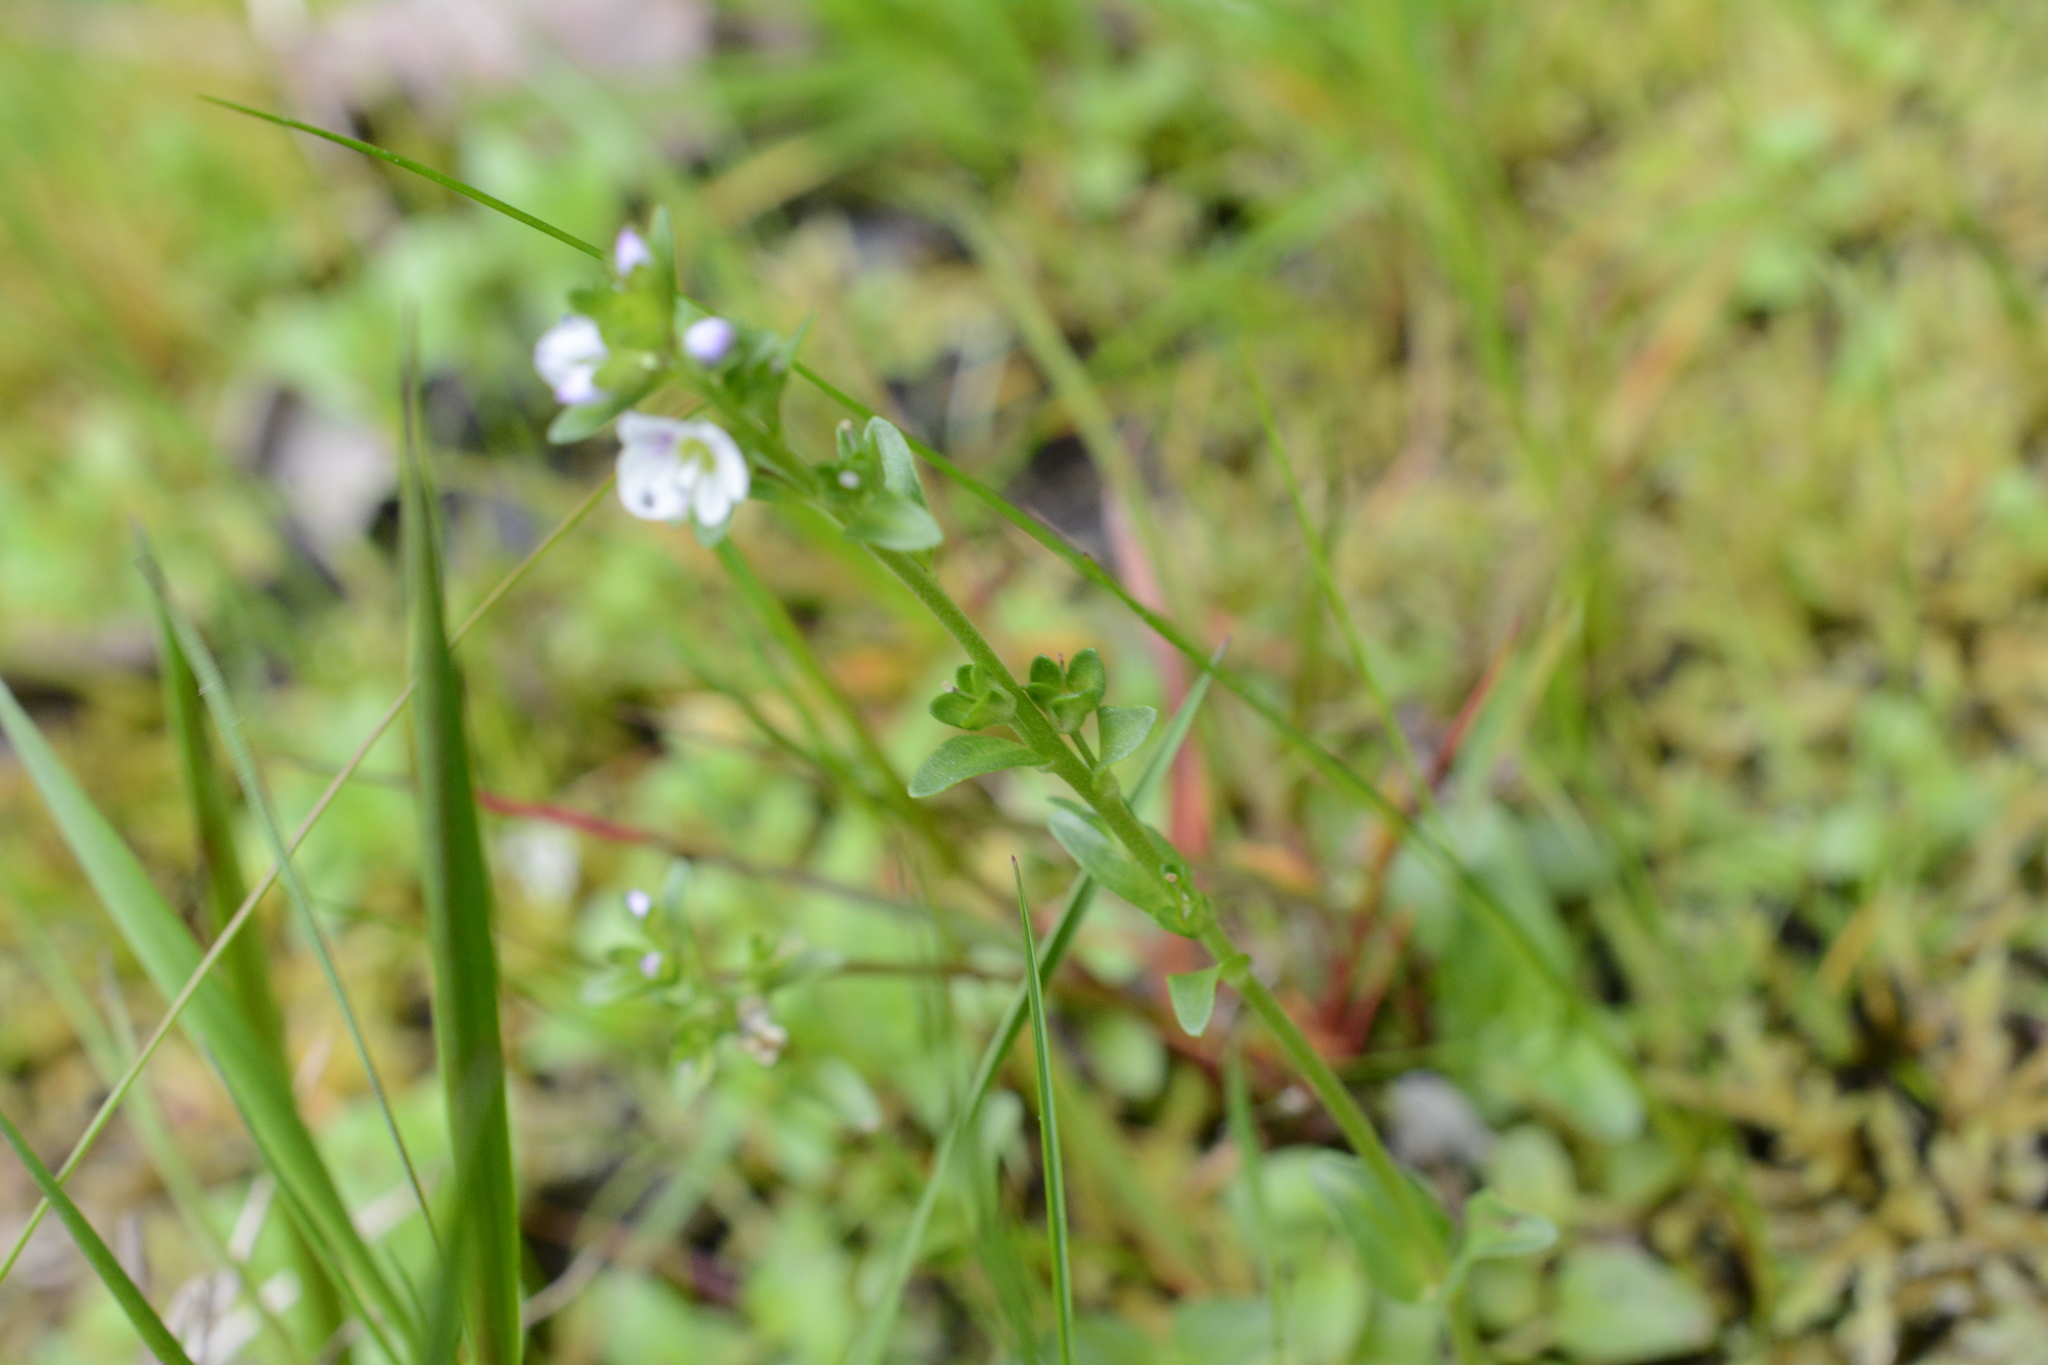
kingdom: Plantae
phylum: Tracheophyta
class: Magnoliopsida
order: Lamiales
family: Plantaginaceae
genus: Veronica
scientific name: Veronica serpyllifolia
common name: Thyme-leaved speedwell
